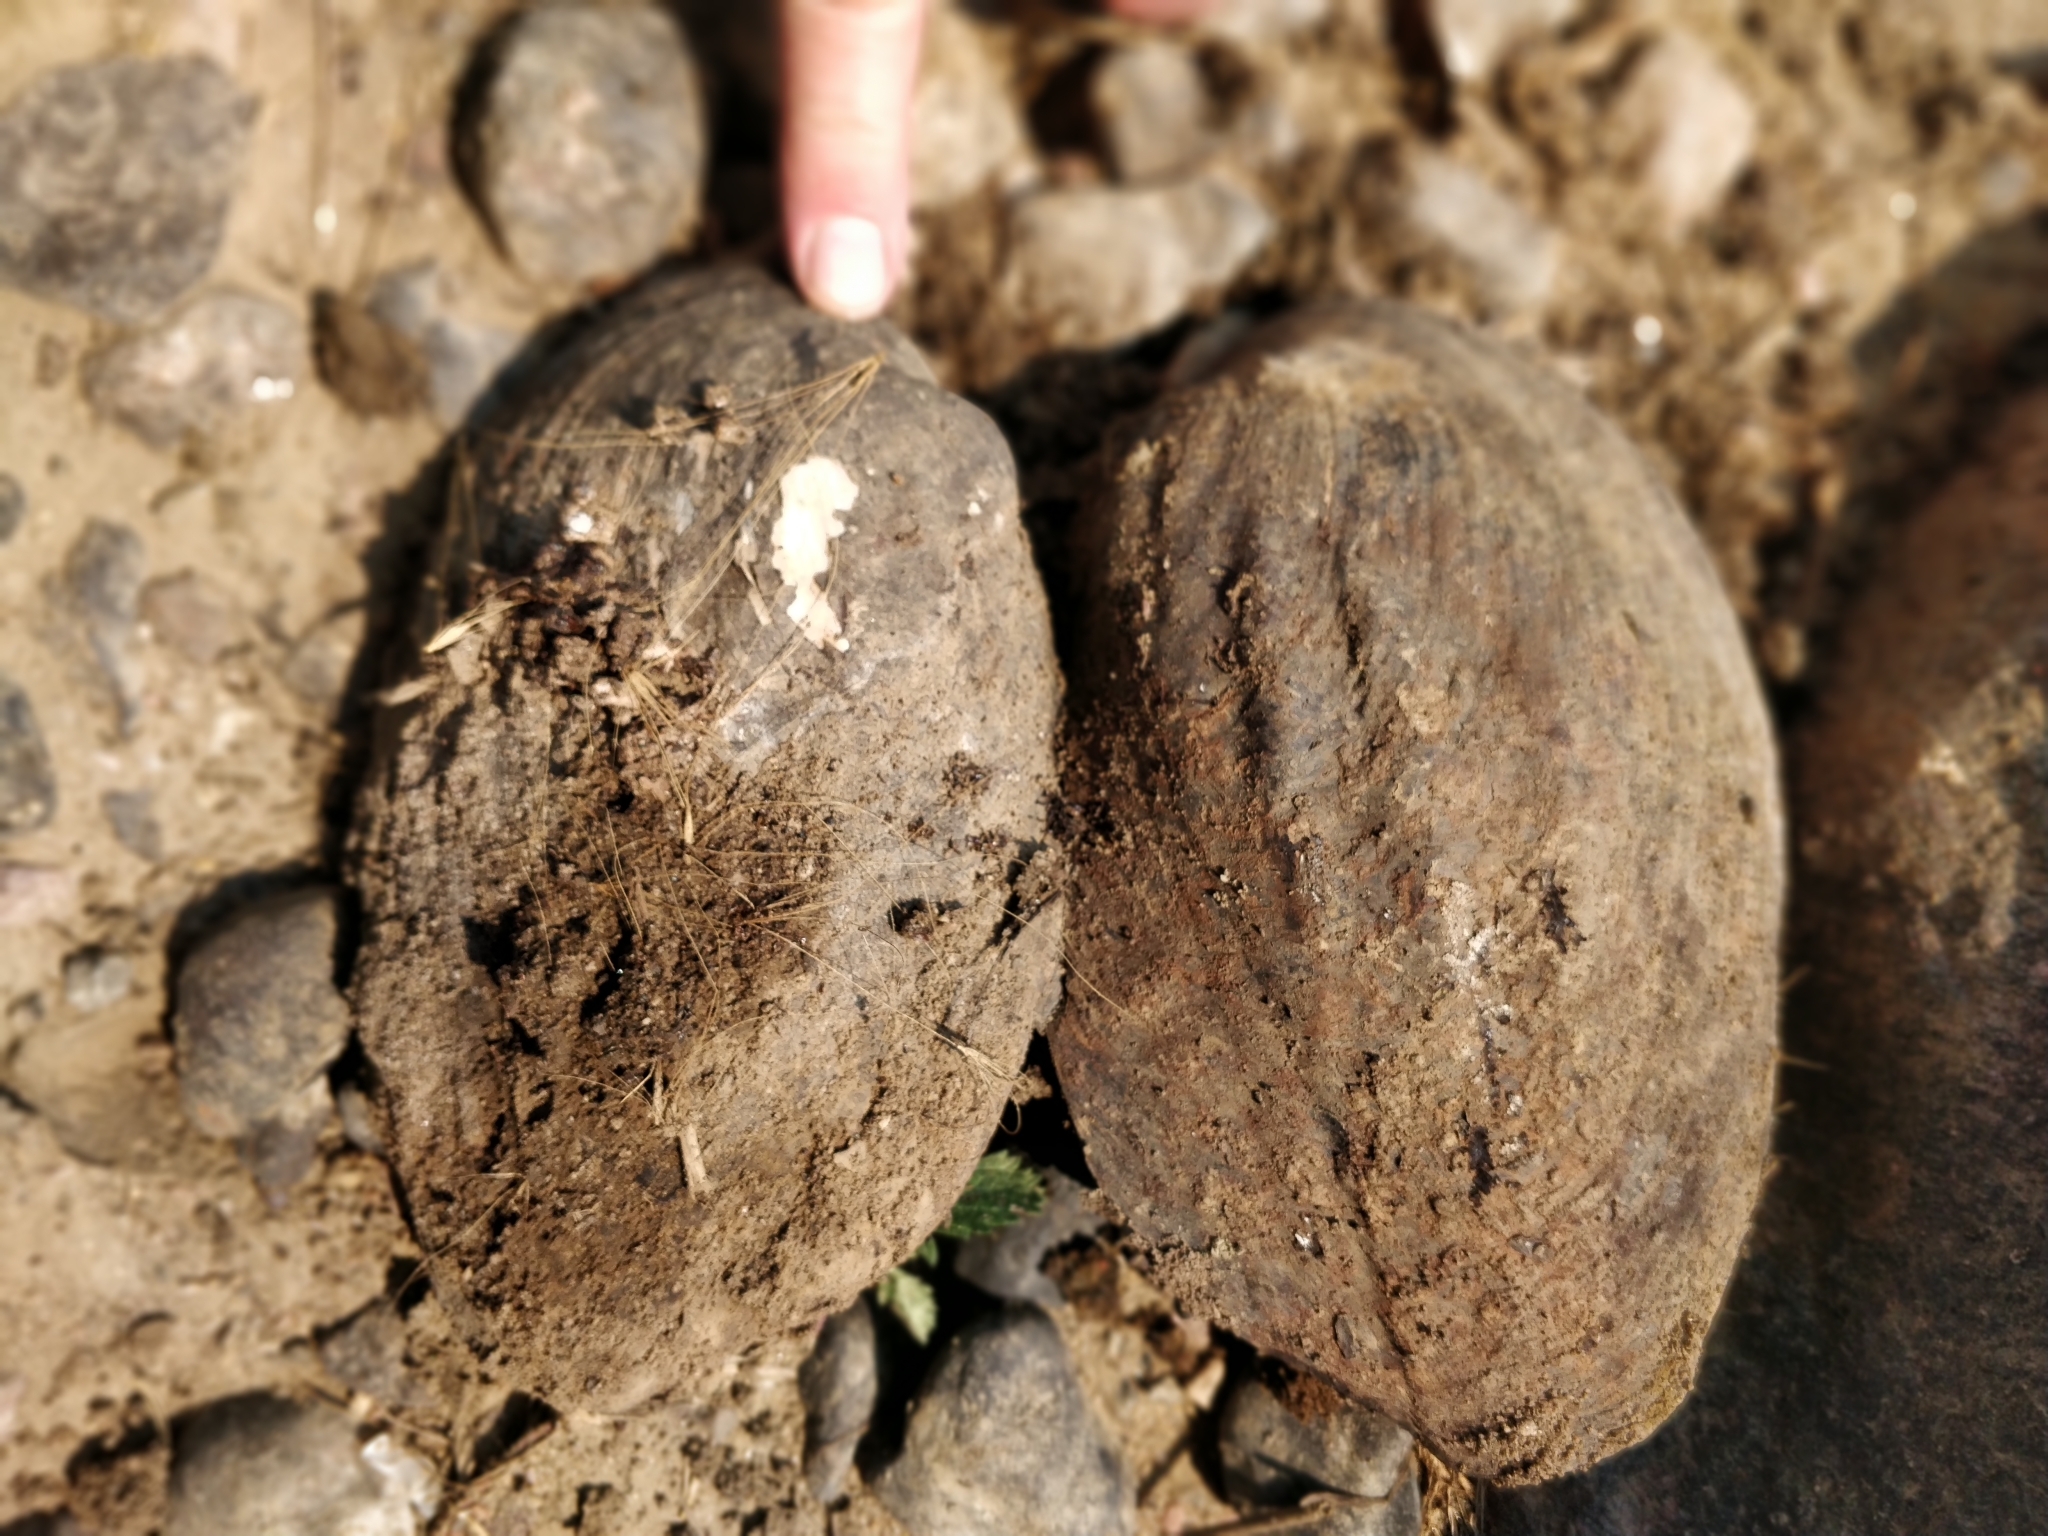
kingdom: Animalia
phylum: Mollusca
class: Bivalvia
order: Unionida
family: Unionidae
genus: Amblema
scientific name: Amblema plicata
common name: Threeridge
